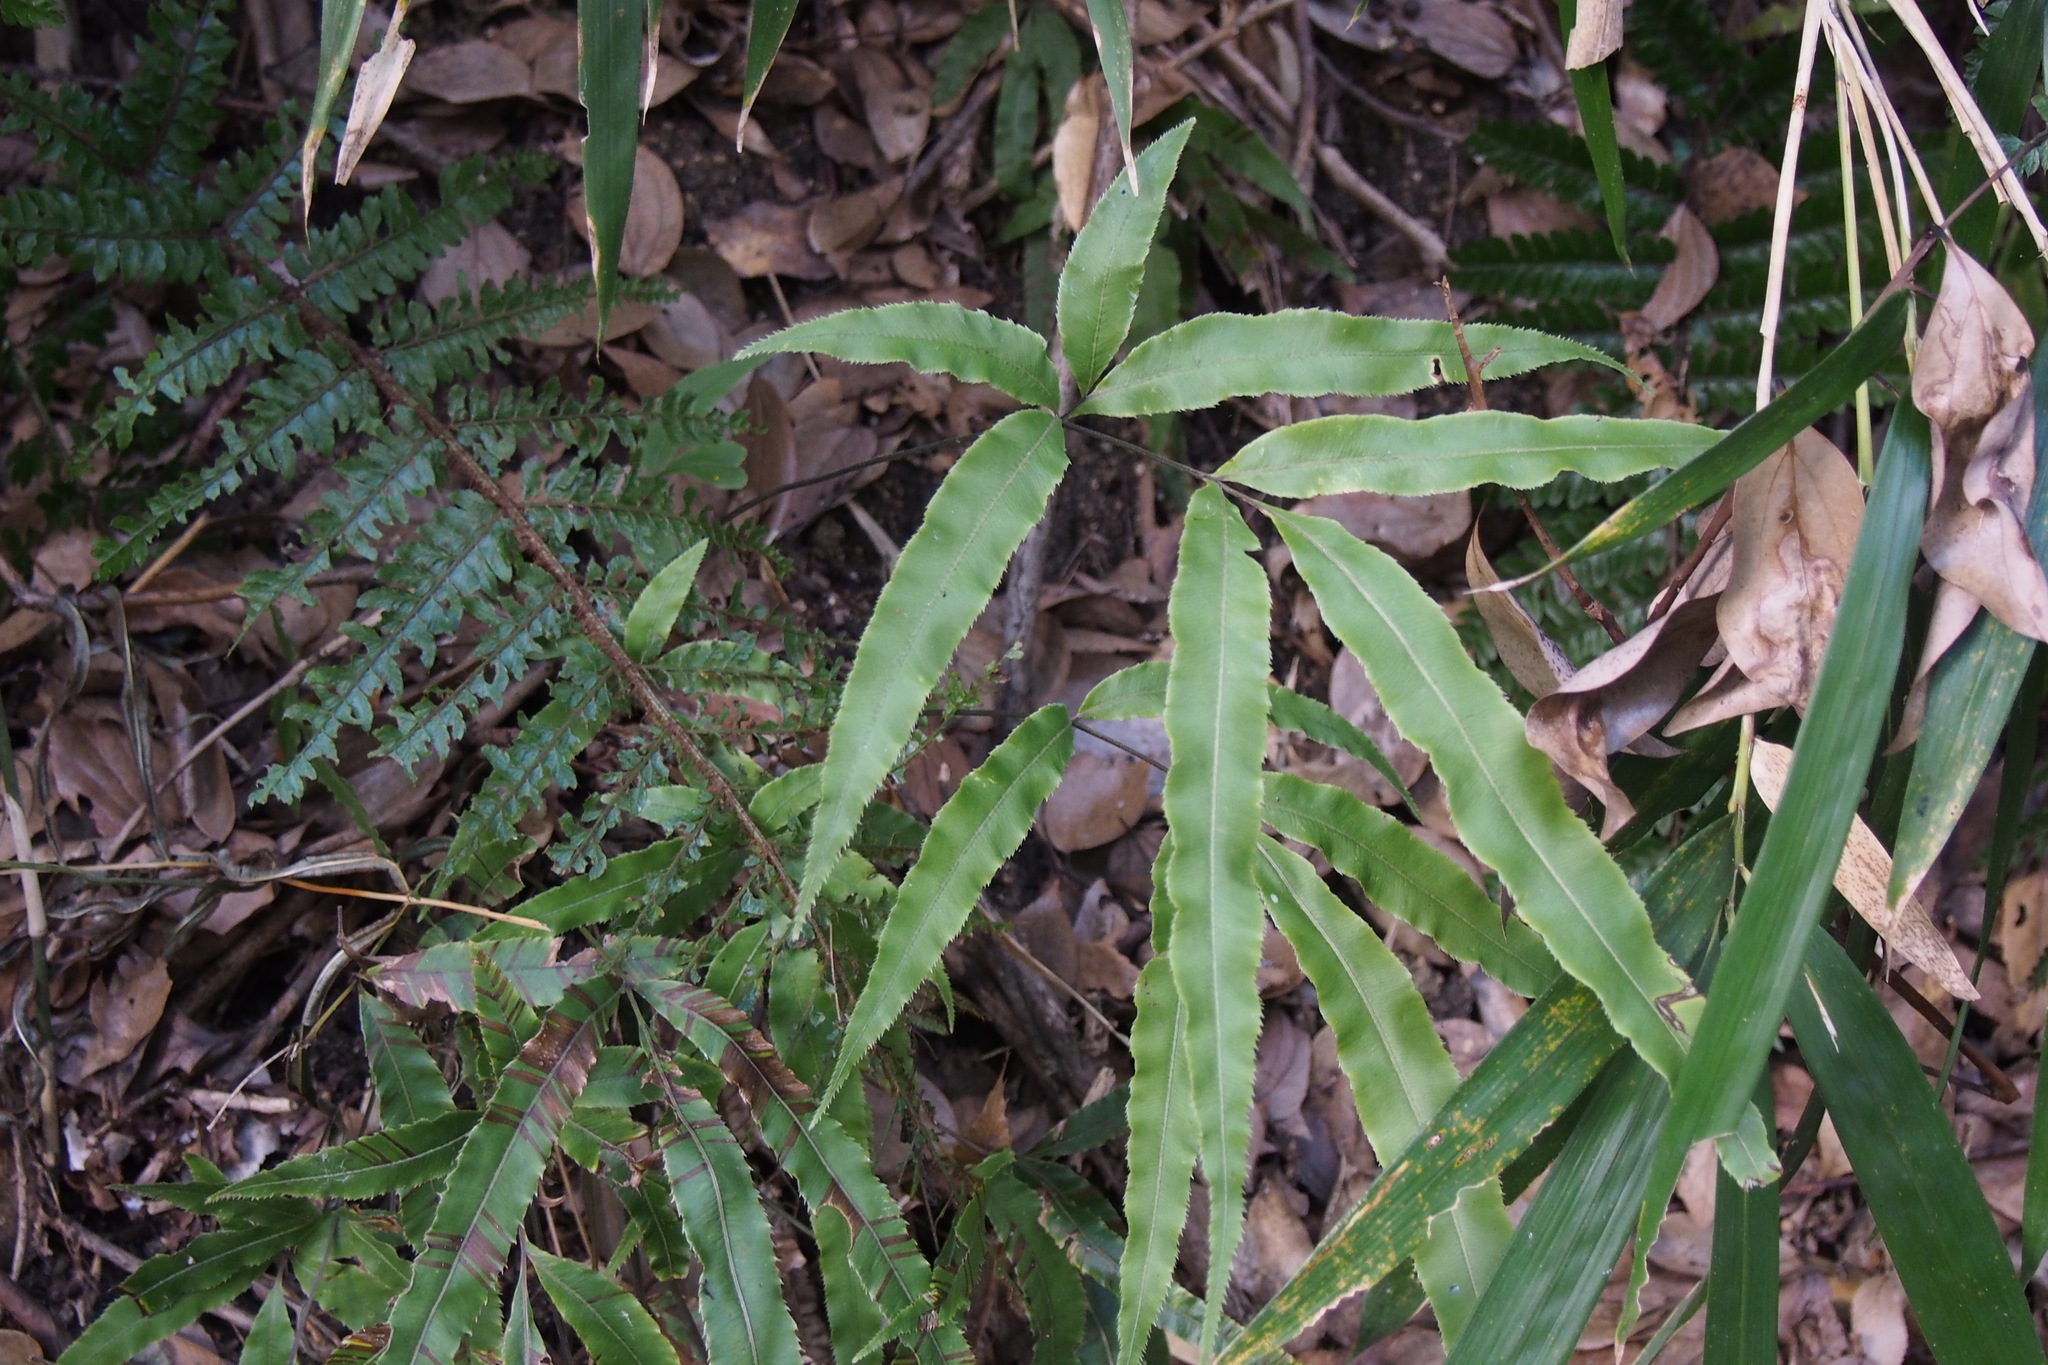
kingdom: Plantae
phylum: Tracheophyta
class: Polypodiopsida
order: Polypodiales
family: Pteridaceae
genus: Pteris
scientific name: Pteris cretica
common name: Ribbon fern
